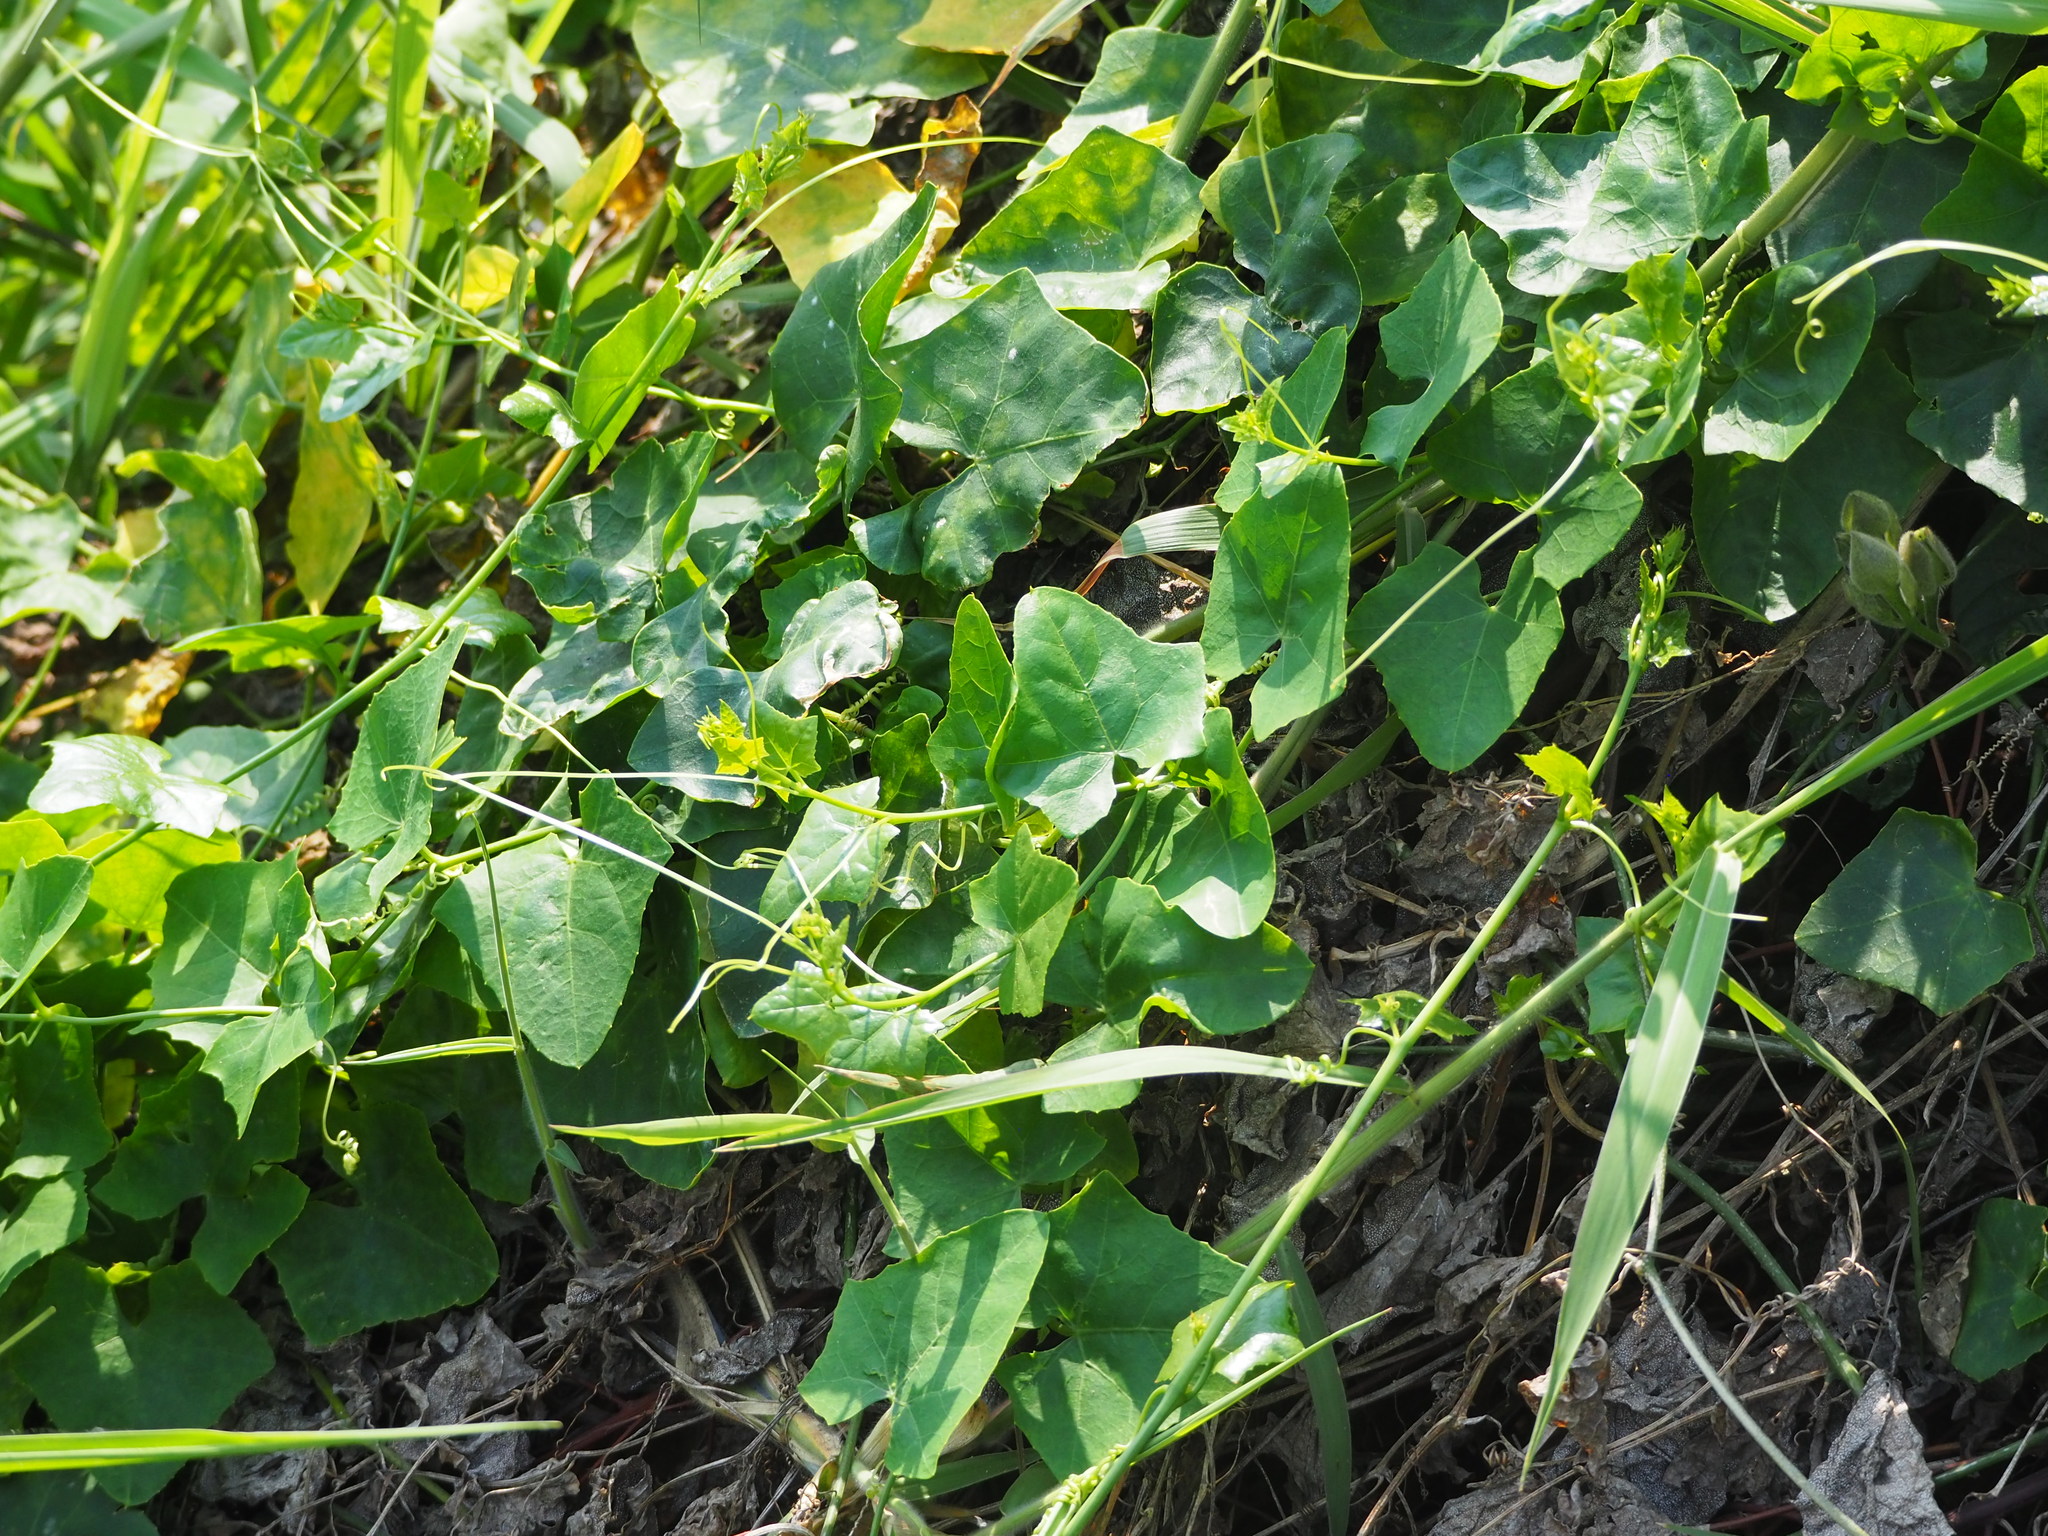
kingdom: Plantae
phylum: Tracheophyta
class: Magnoliopsida
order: Cucurbitales
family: Cucurbitaceae
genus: Coccinia
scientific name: Coccinia grandis
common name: Ivy gourd
